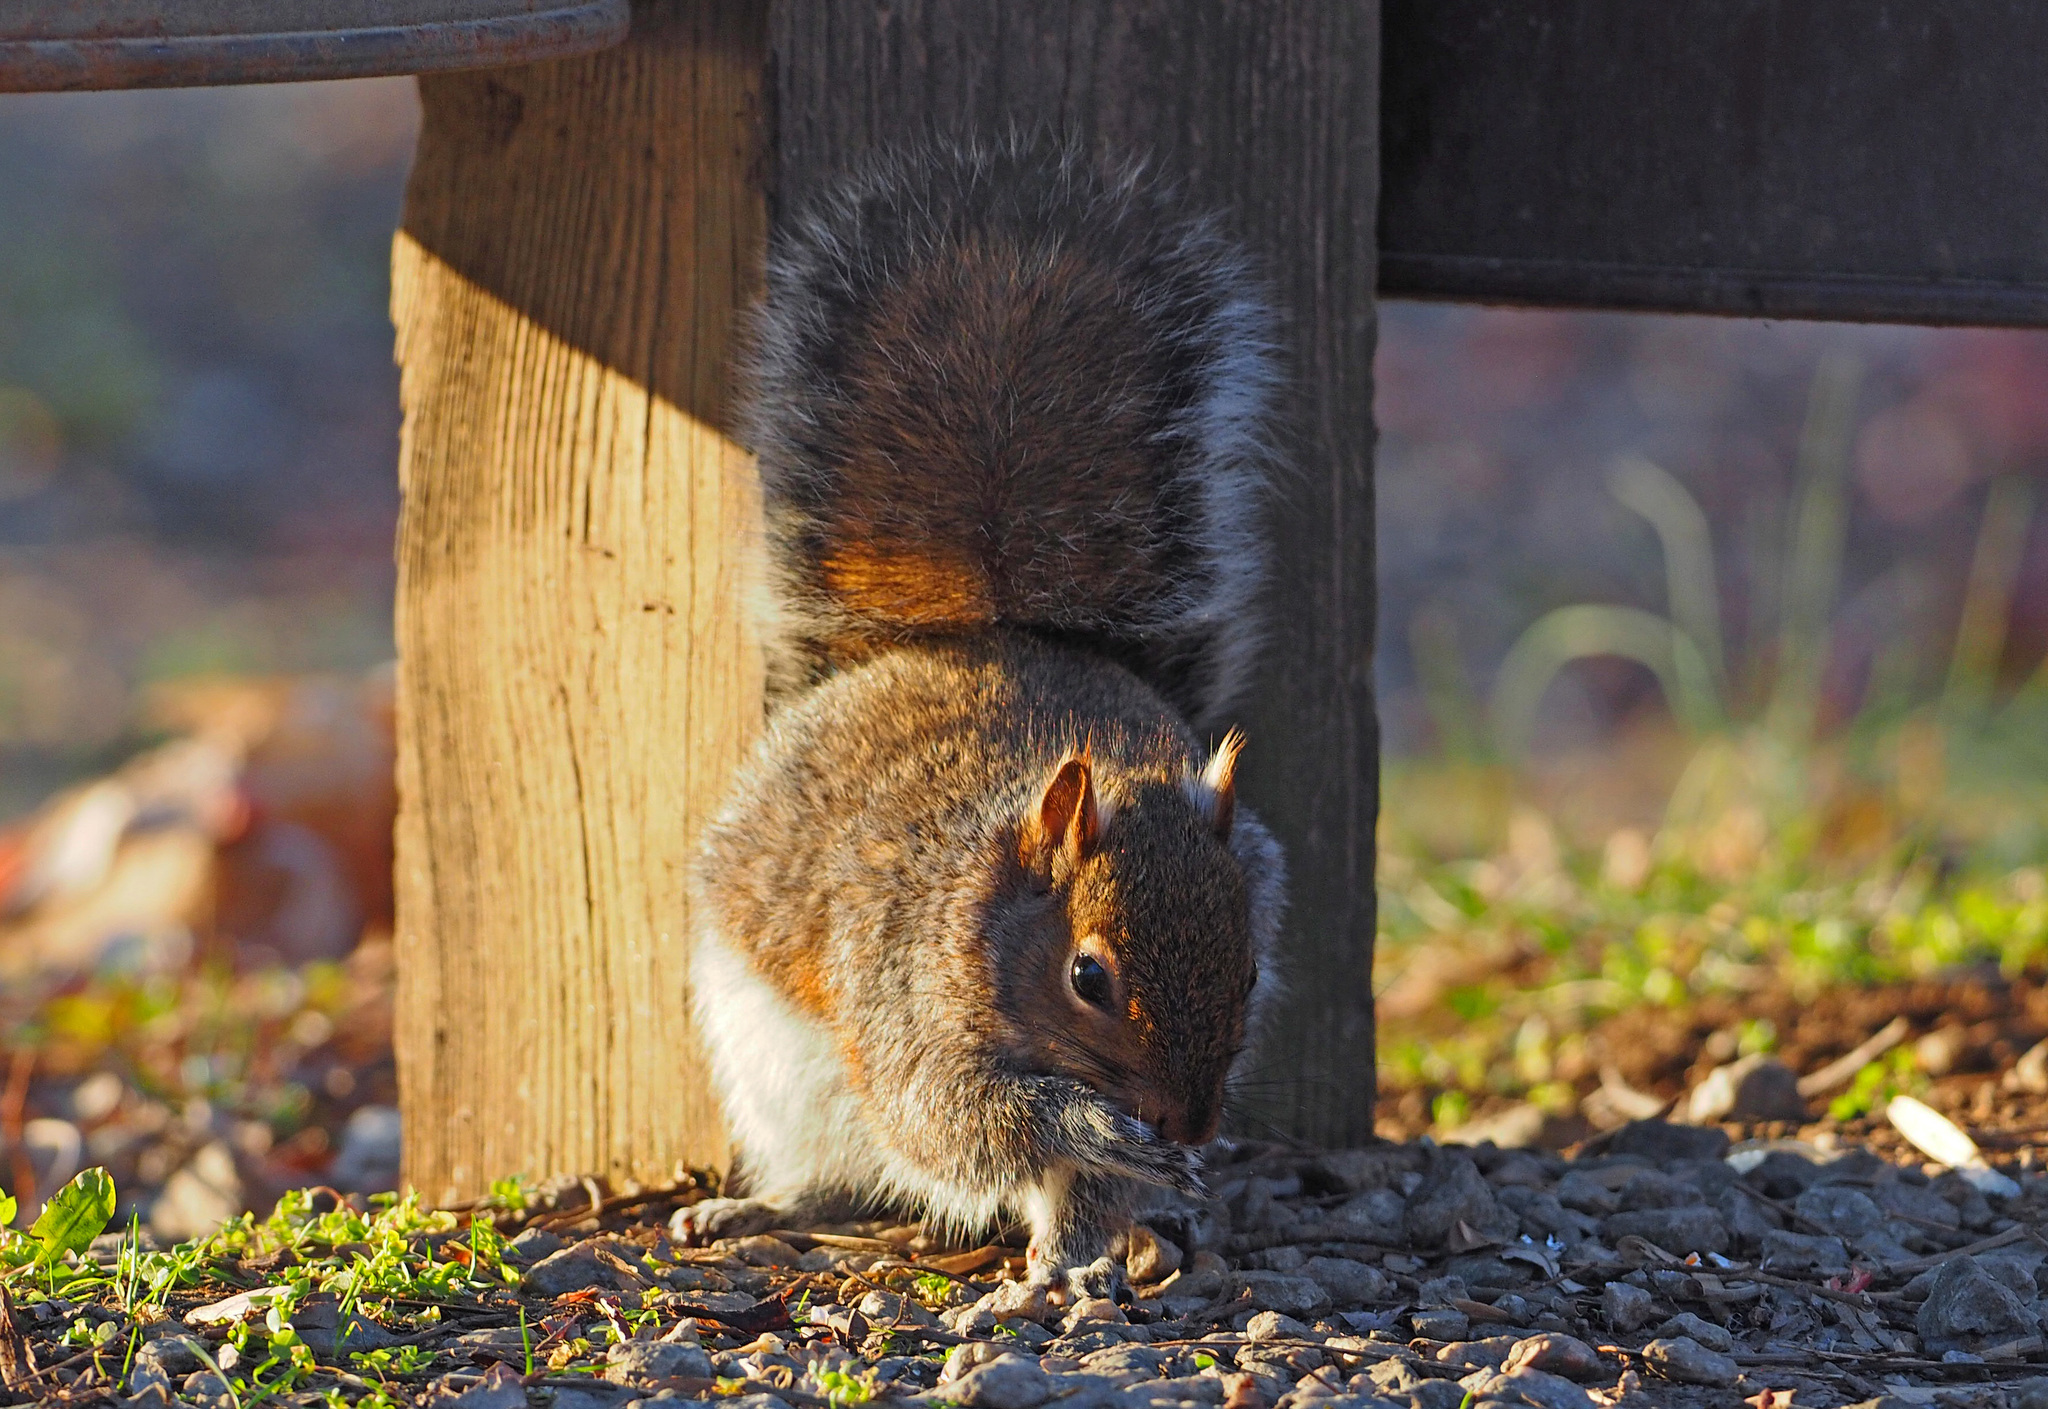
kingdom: Animalia
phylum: Chordata
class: Mammalia
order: Rodentia
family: Sciuridae
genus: Sciurus
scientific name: Sciurus carolinensis
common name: Eastern gray squirrel
